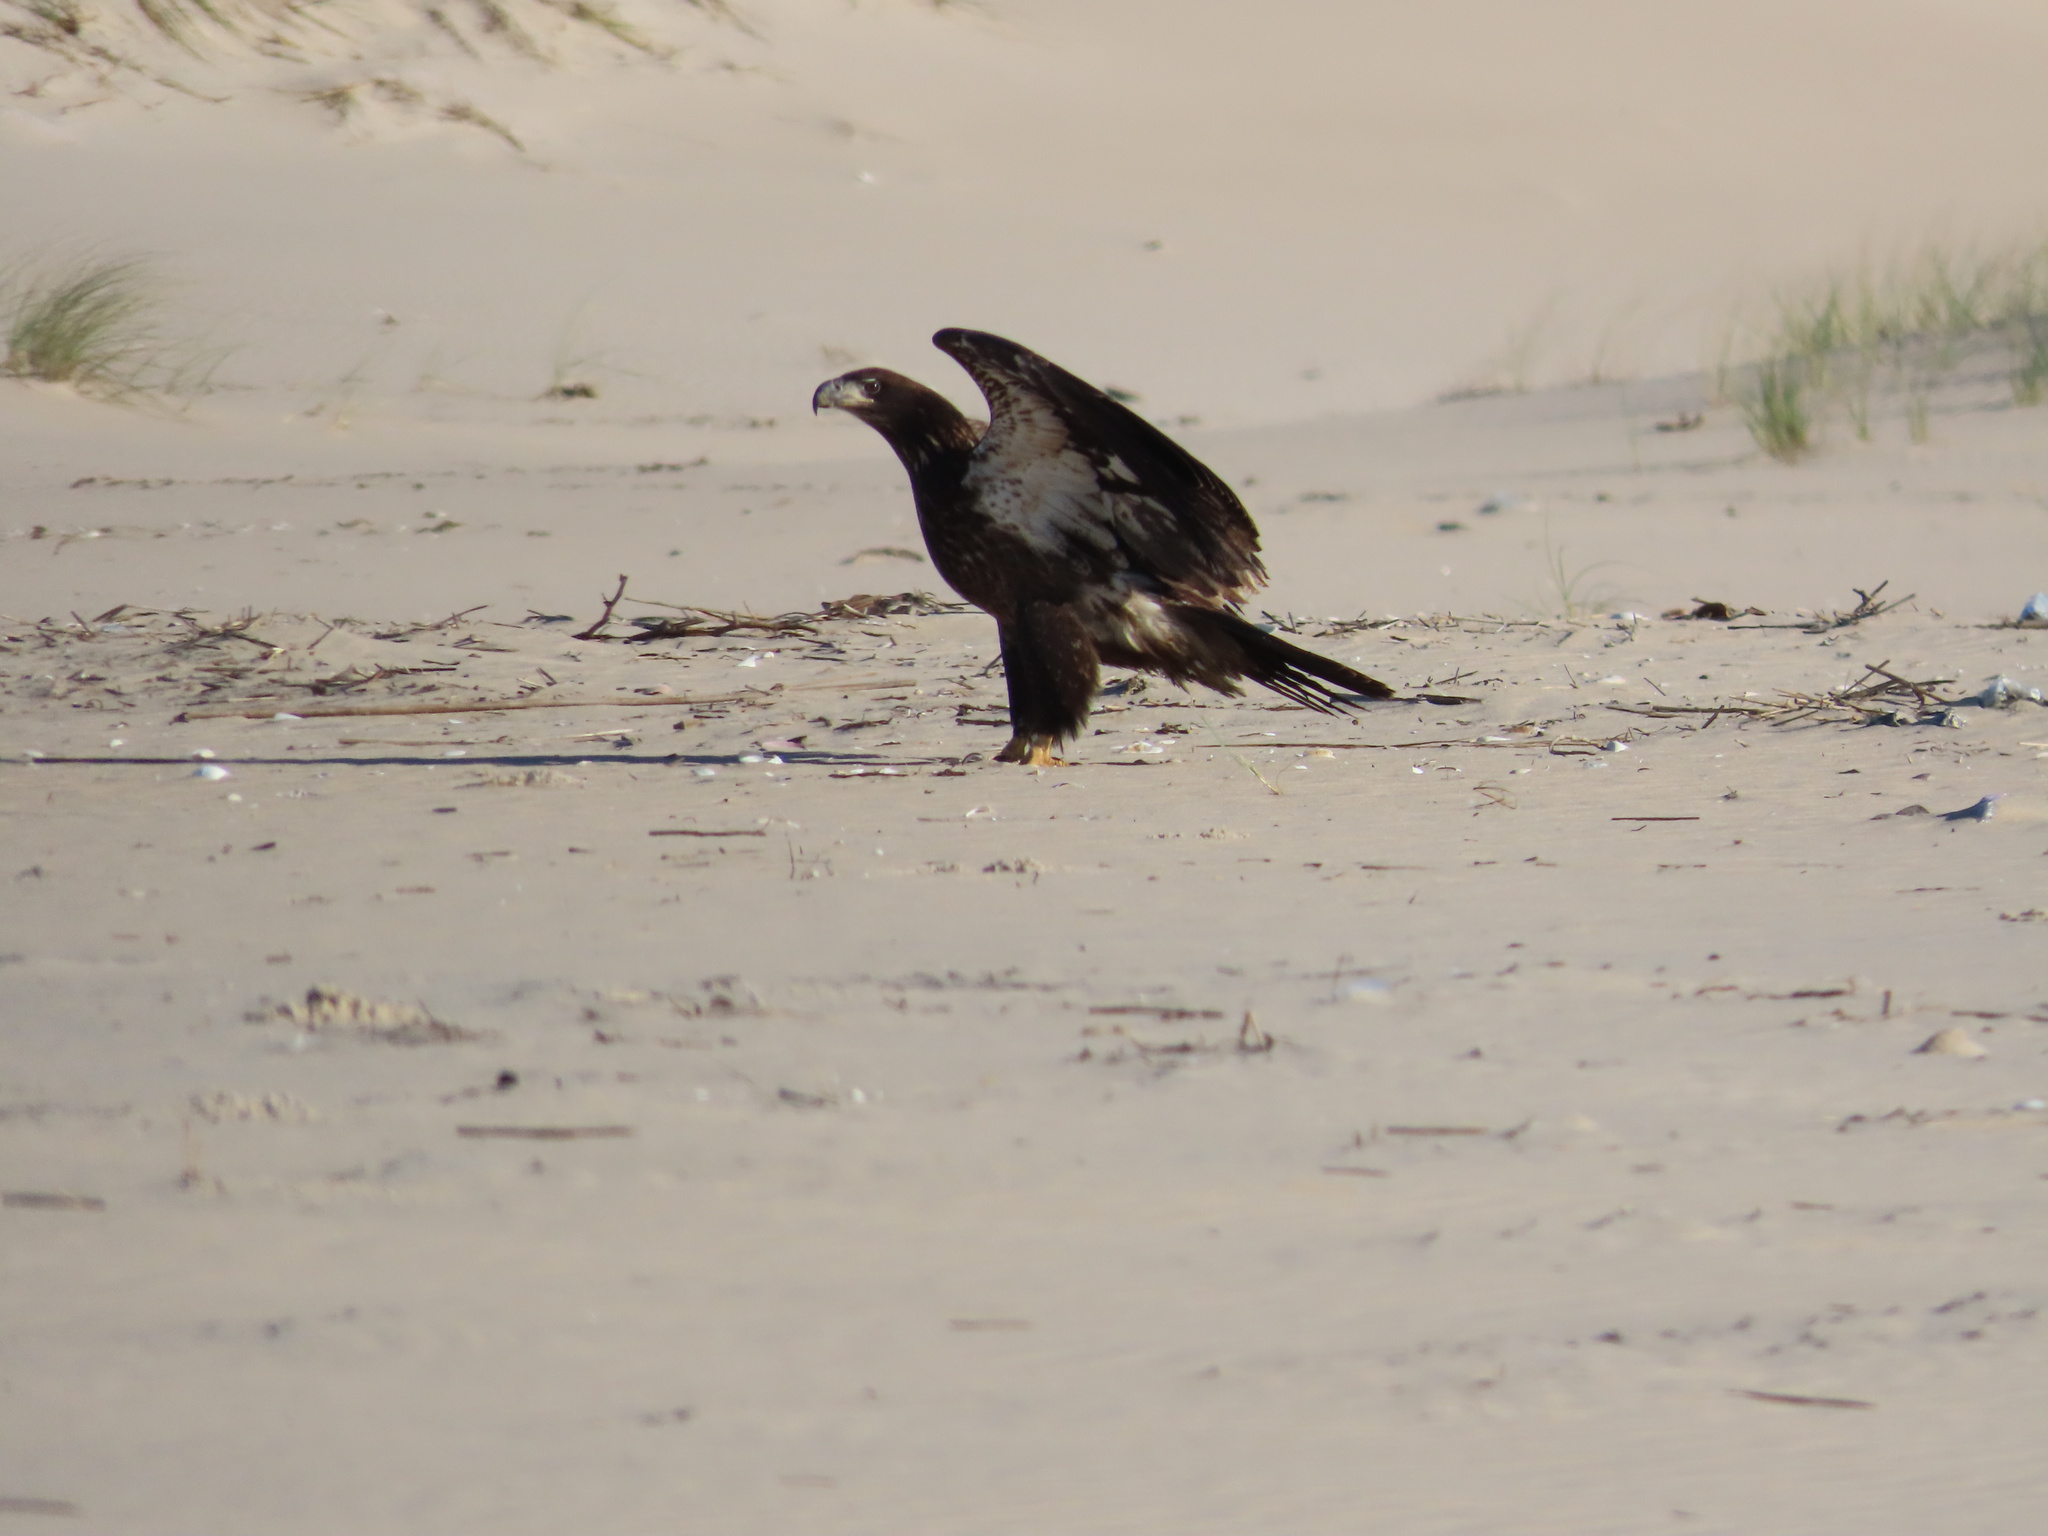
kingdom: Animalia
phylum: Chordata
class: Aves
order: Accipitriformes
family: Accipitridae
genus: Haliaeetus
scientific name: Haliaeetus leucocephalus
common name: Bald eagle
